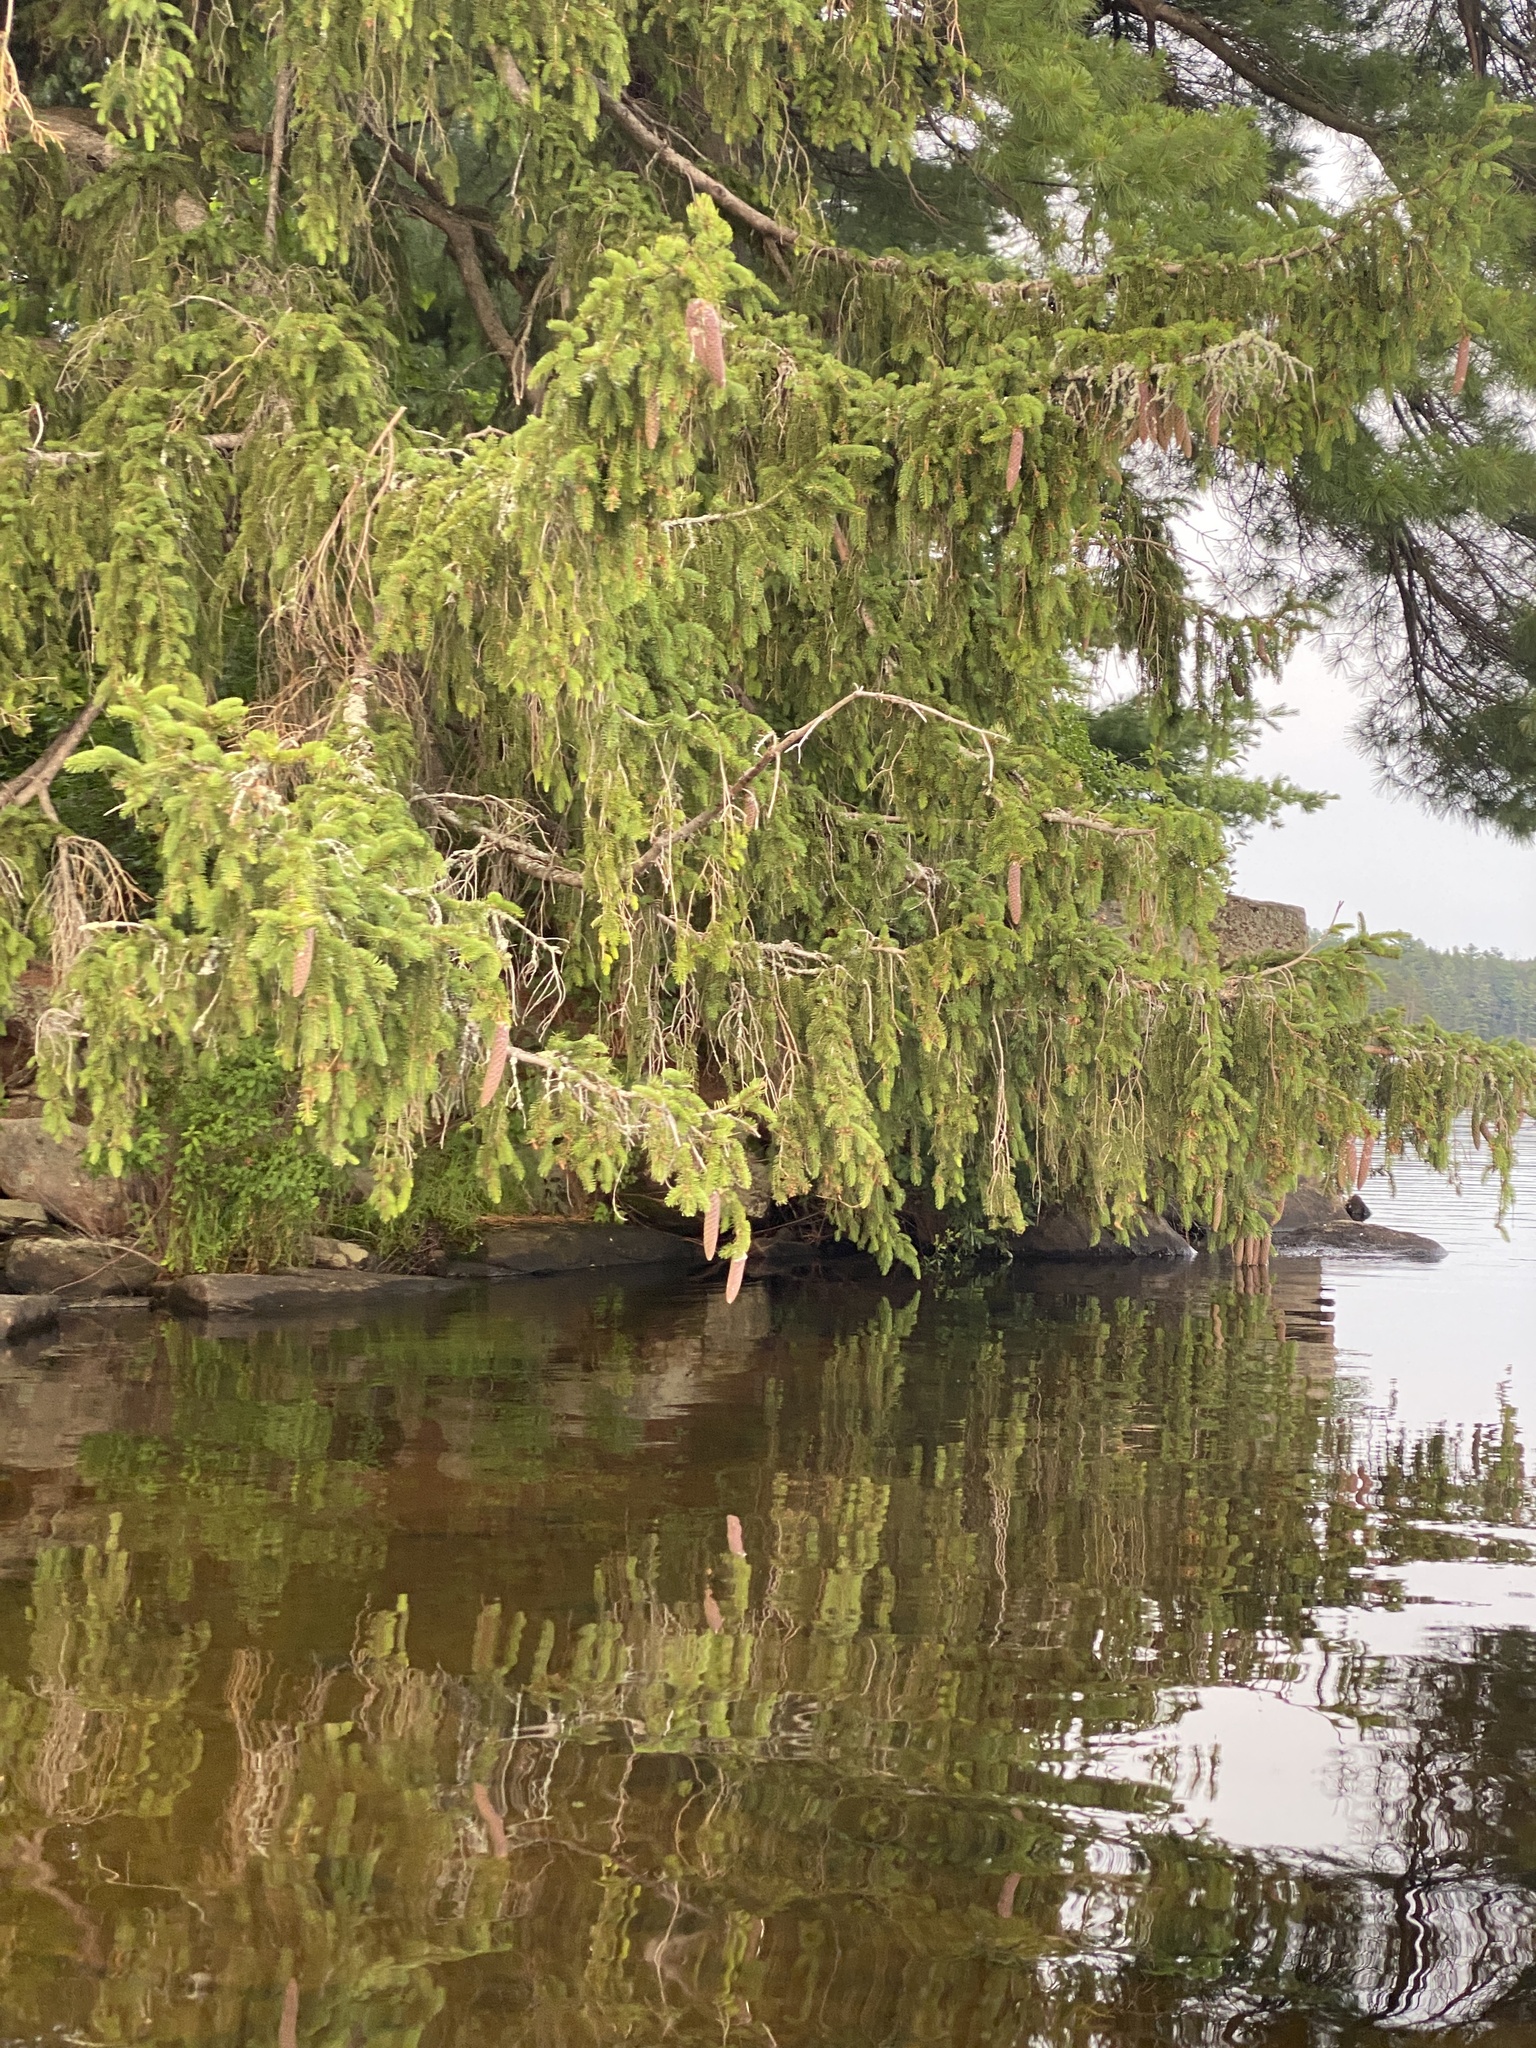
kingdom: Plantae
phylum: Tracheophyta
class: Pinopsida
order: Pinales
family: Pinaceae
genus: Picea
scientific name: Picea abies
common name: Norway spruce
